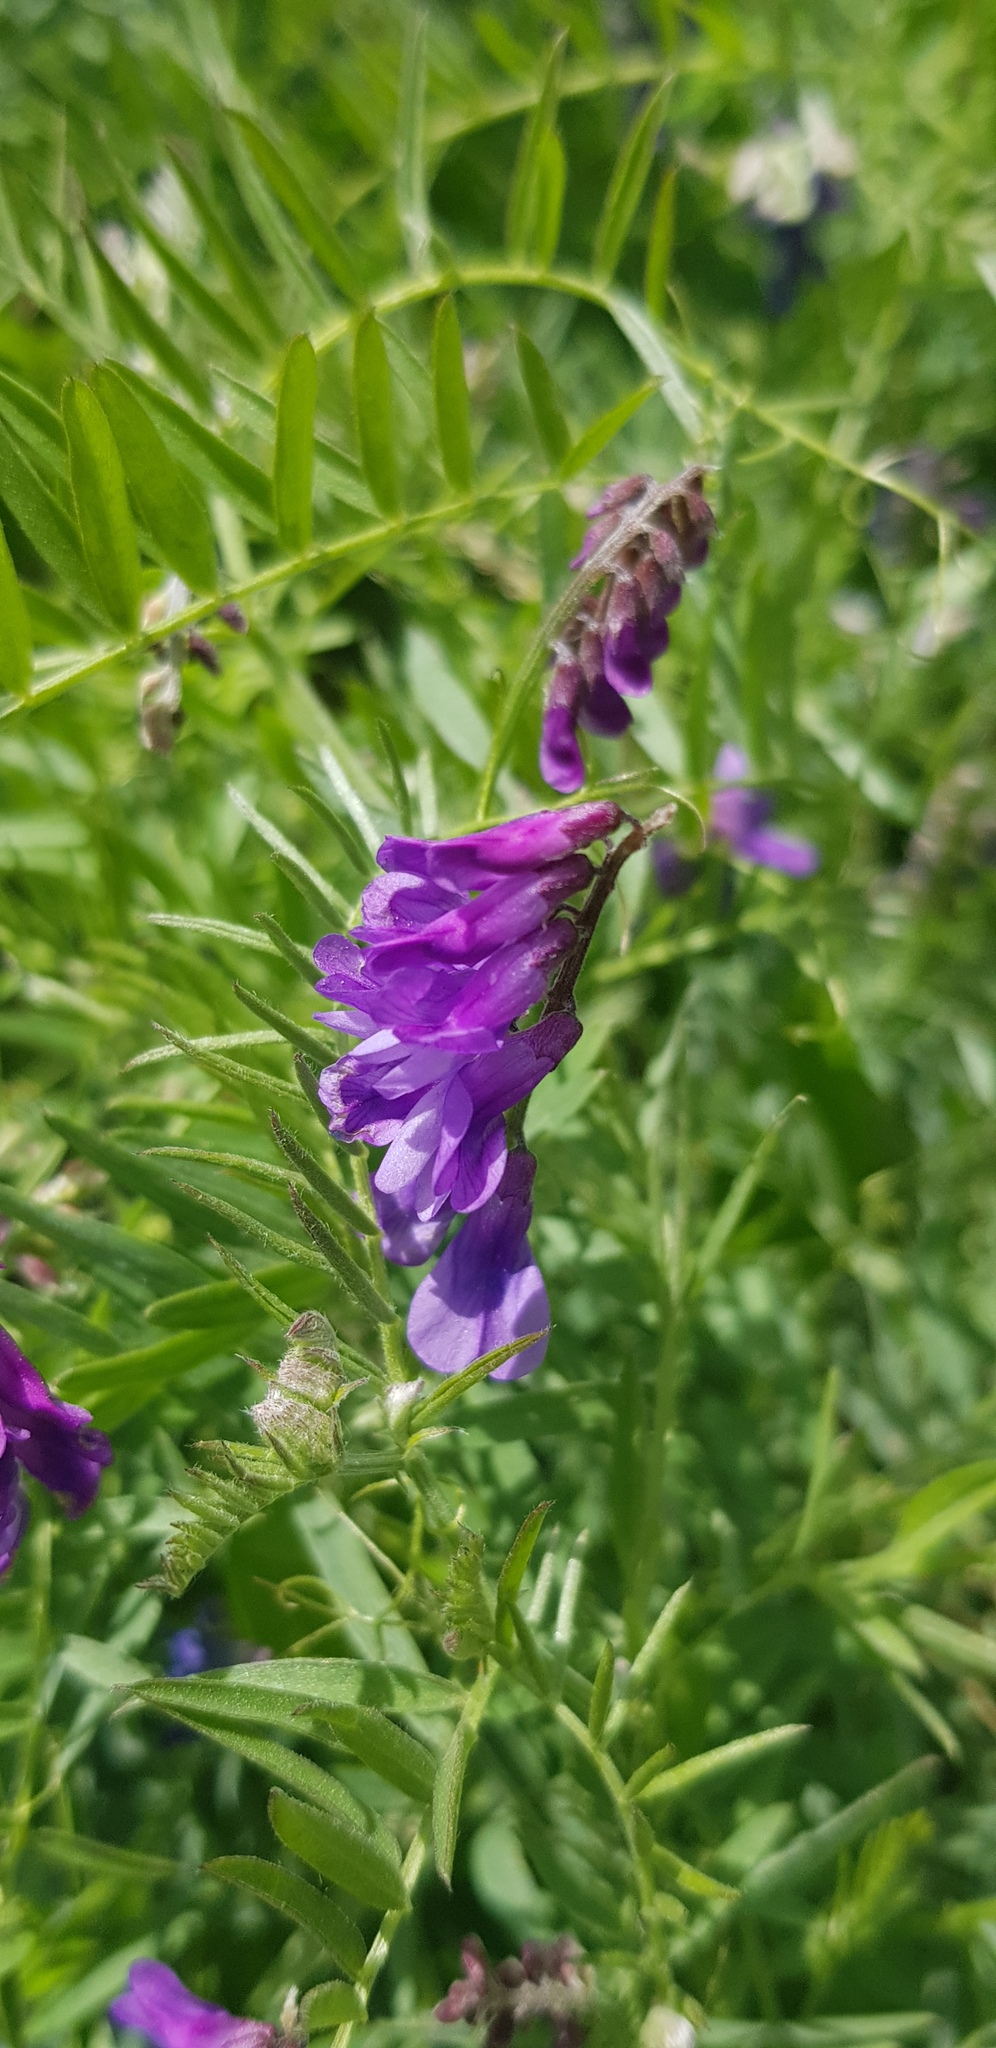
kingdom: Plantae
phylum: Tracheophyta
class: Magnoliopsida
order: Fabales
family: Fabaceae
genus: Vicia
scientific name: Vicia cracca
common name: Bird vetch
